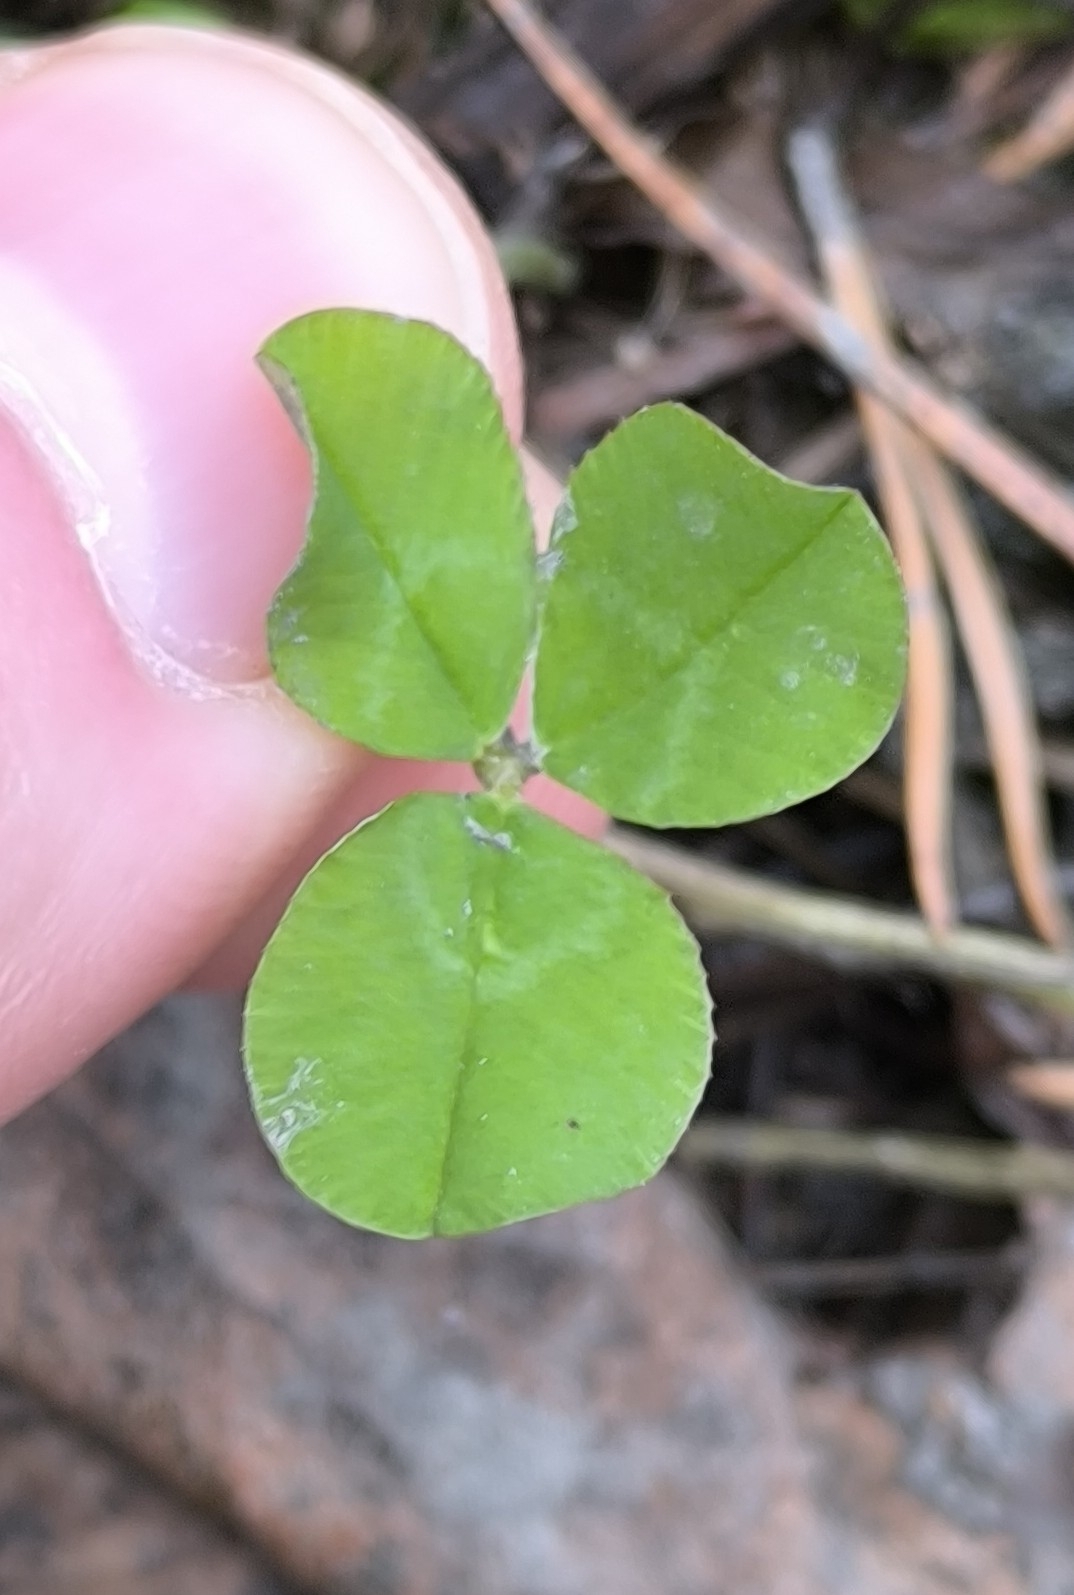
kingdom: Plantae
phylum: Tracheophyta
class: Magnoliopsida
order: Fabales
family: Fabaceae
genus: Trifolium
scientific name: Trifolium repens
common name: White clover
